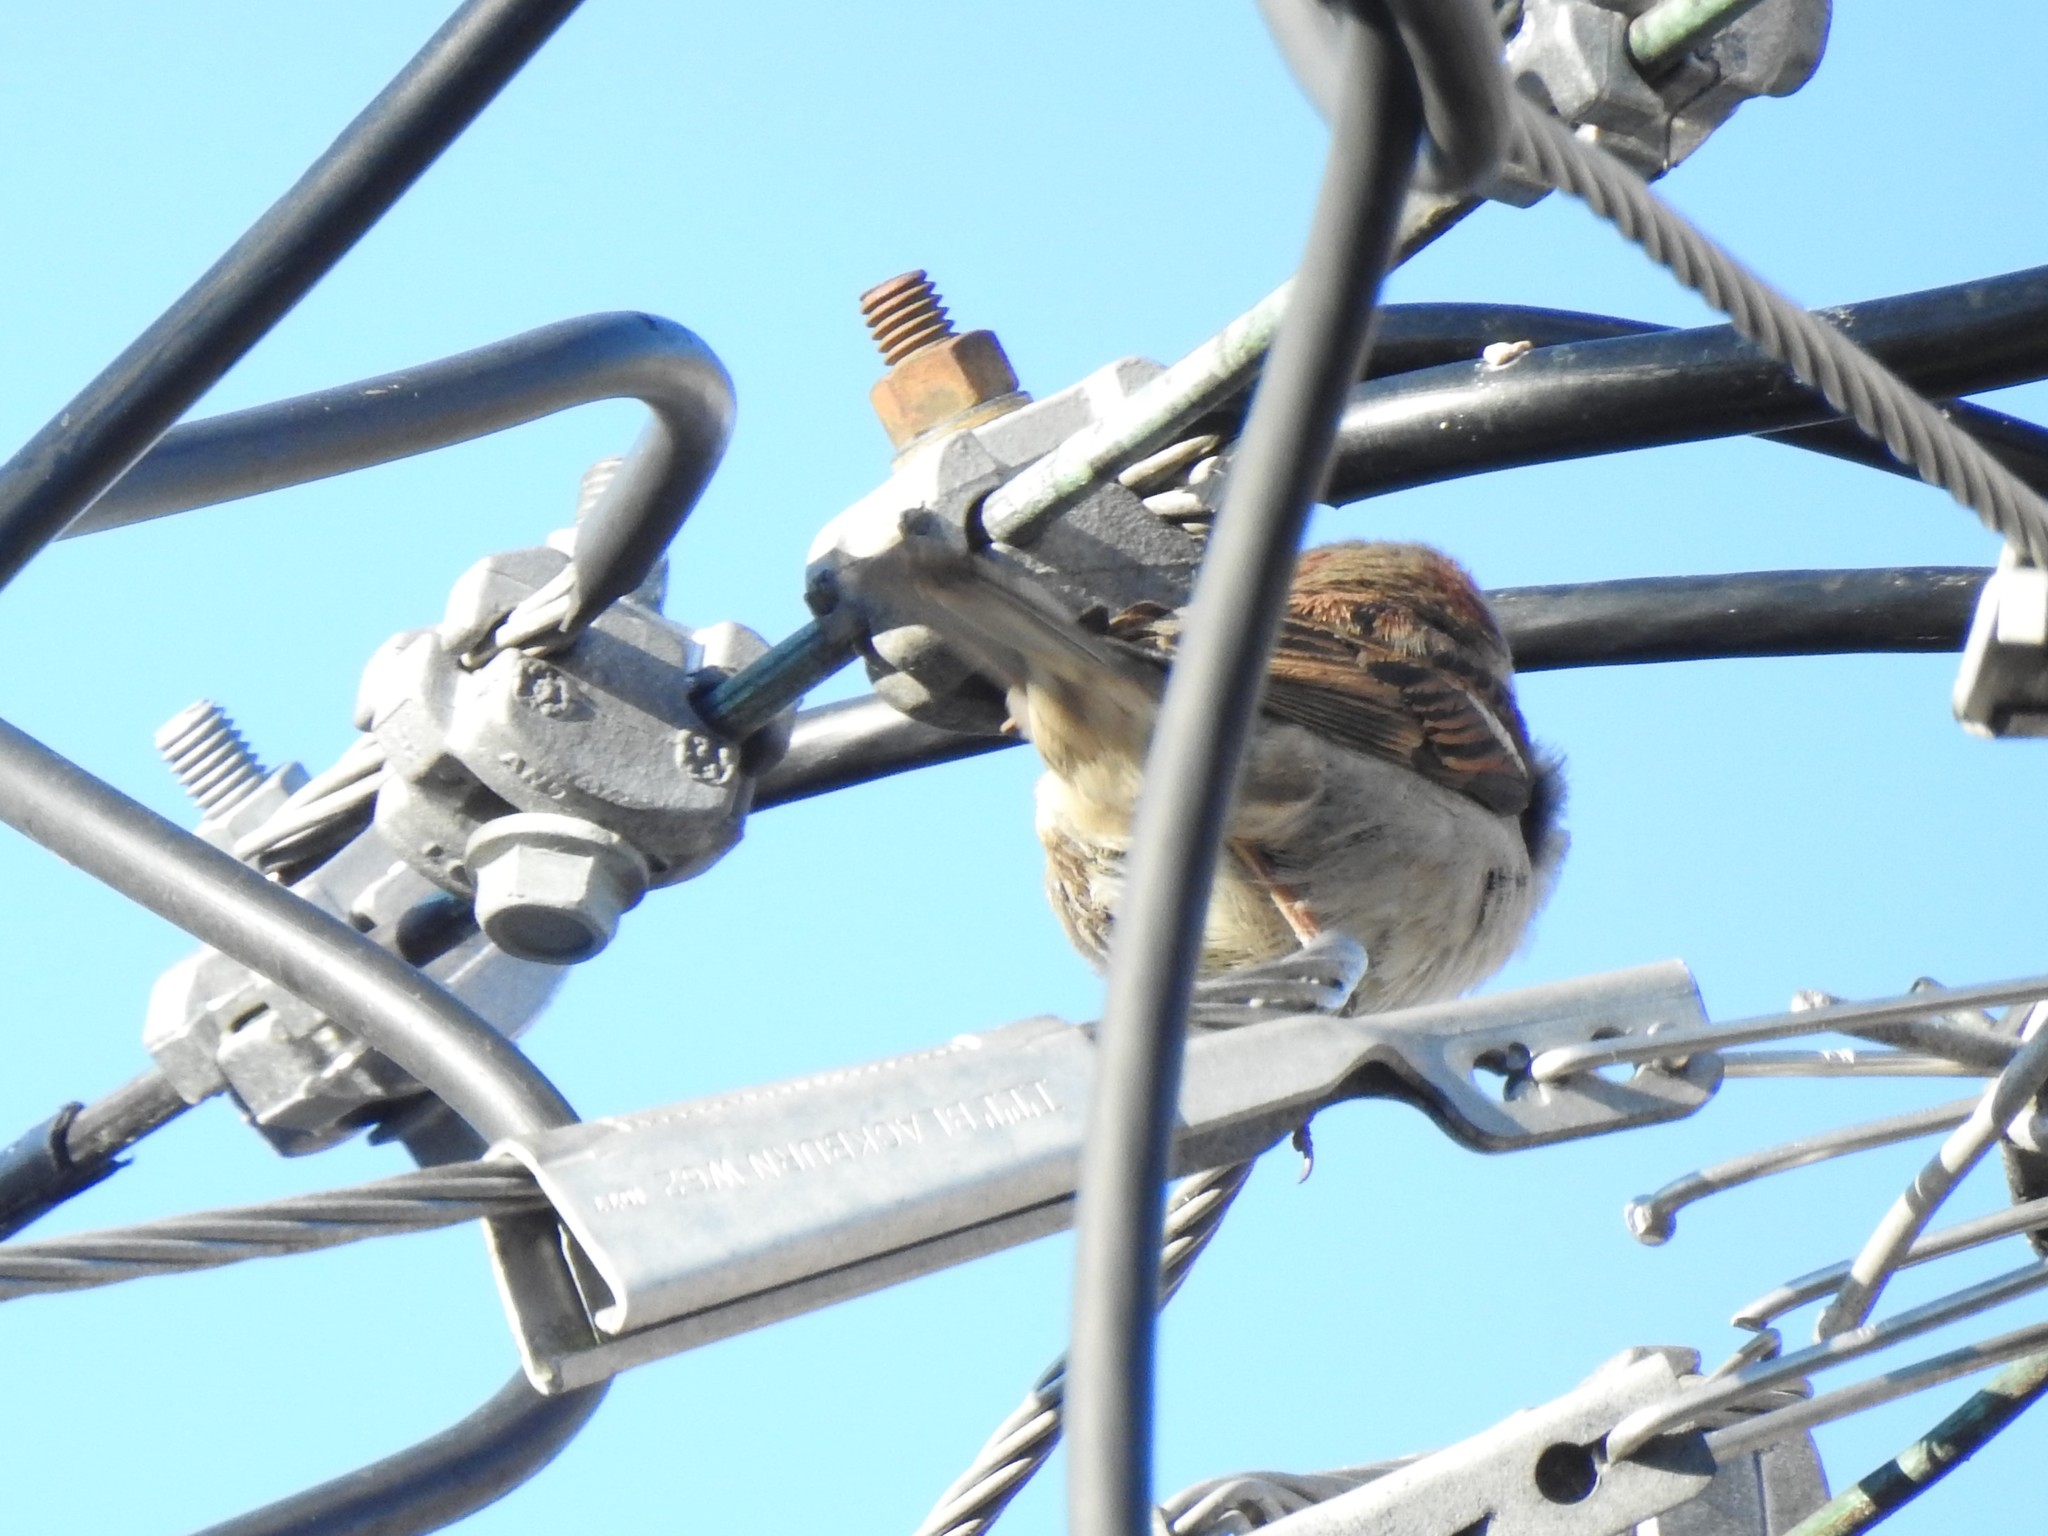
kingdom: Animalia
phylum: Chordata
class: Aves
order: Passeriformes
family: Passeridae
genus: Passer
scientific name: Passer domesticus
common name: House sparrow
